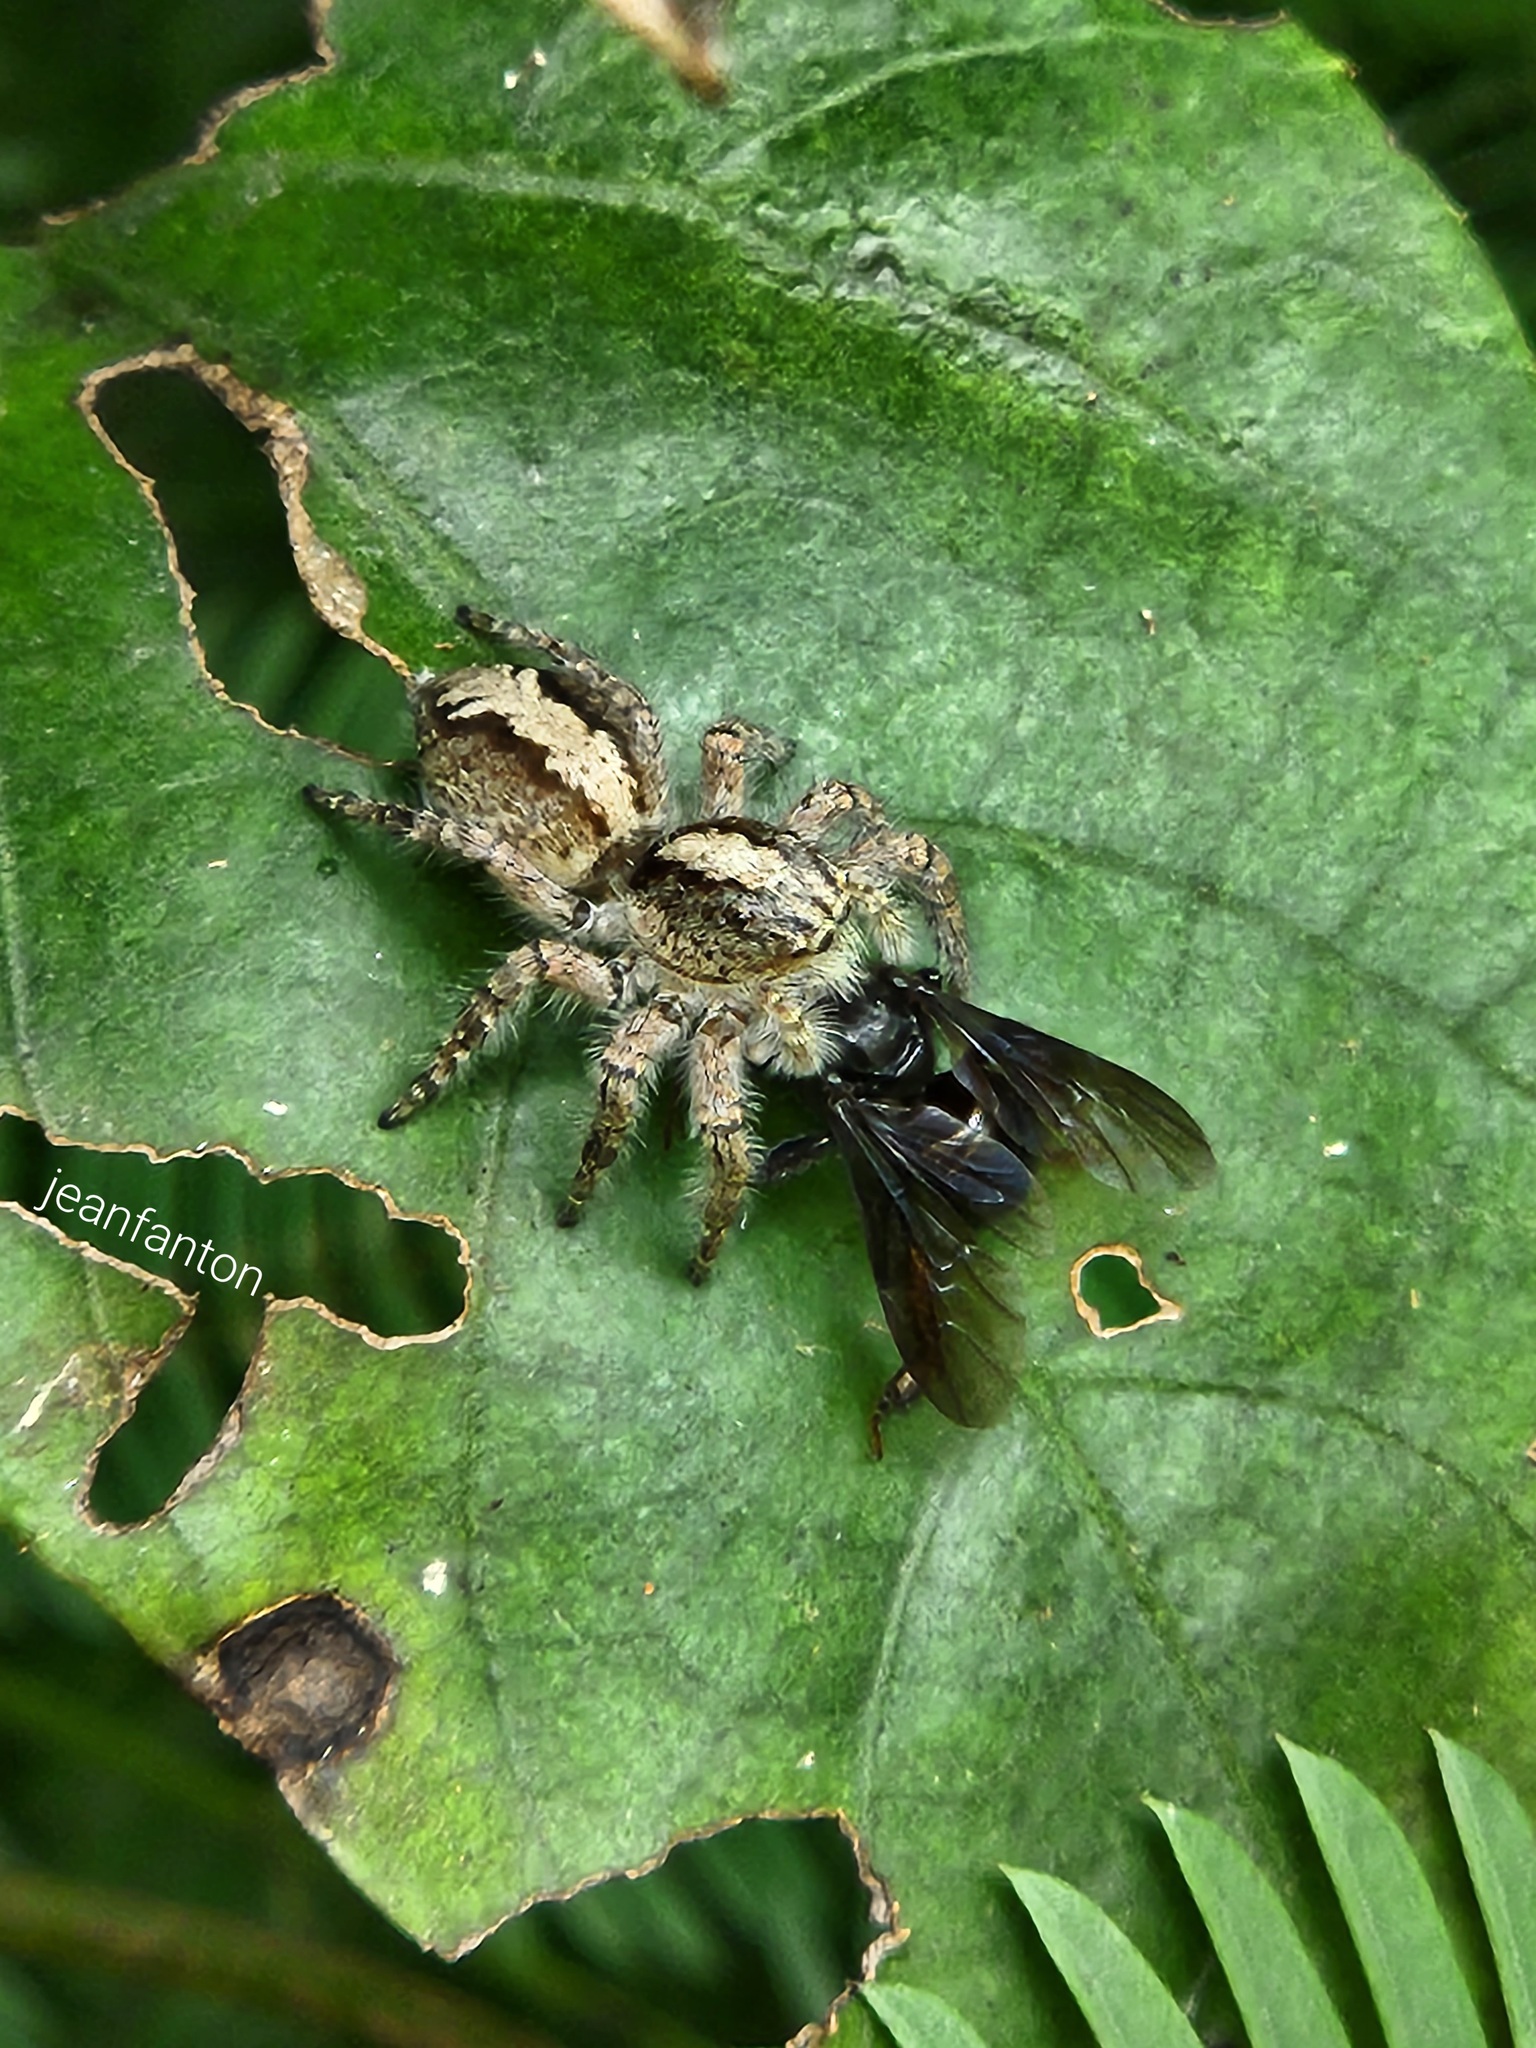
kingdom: Animalia
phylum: Arthropoda
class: Arachnida
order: Araneae
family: Salticidae
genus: Megafreya
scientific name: Megafreya sutrix
